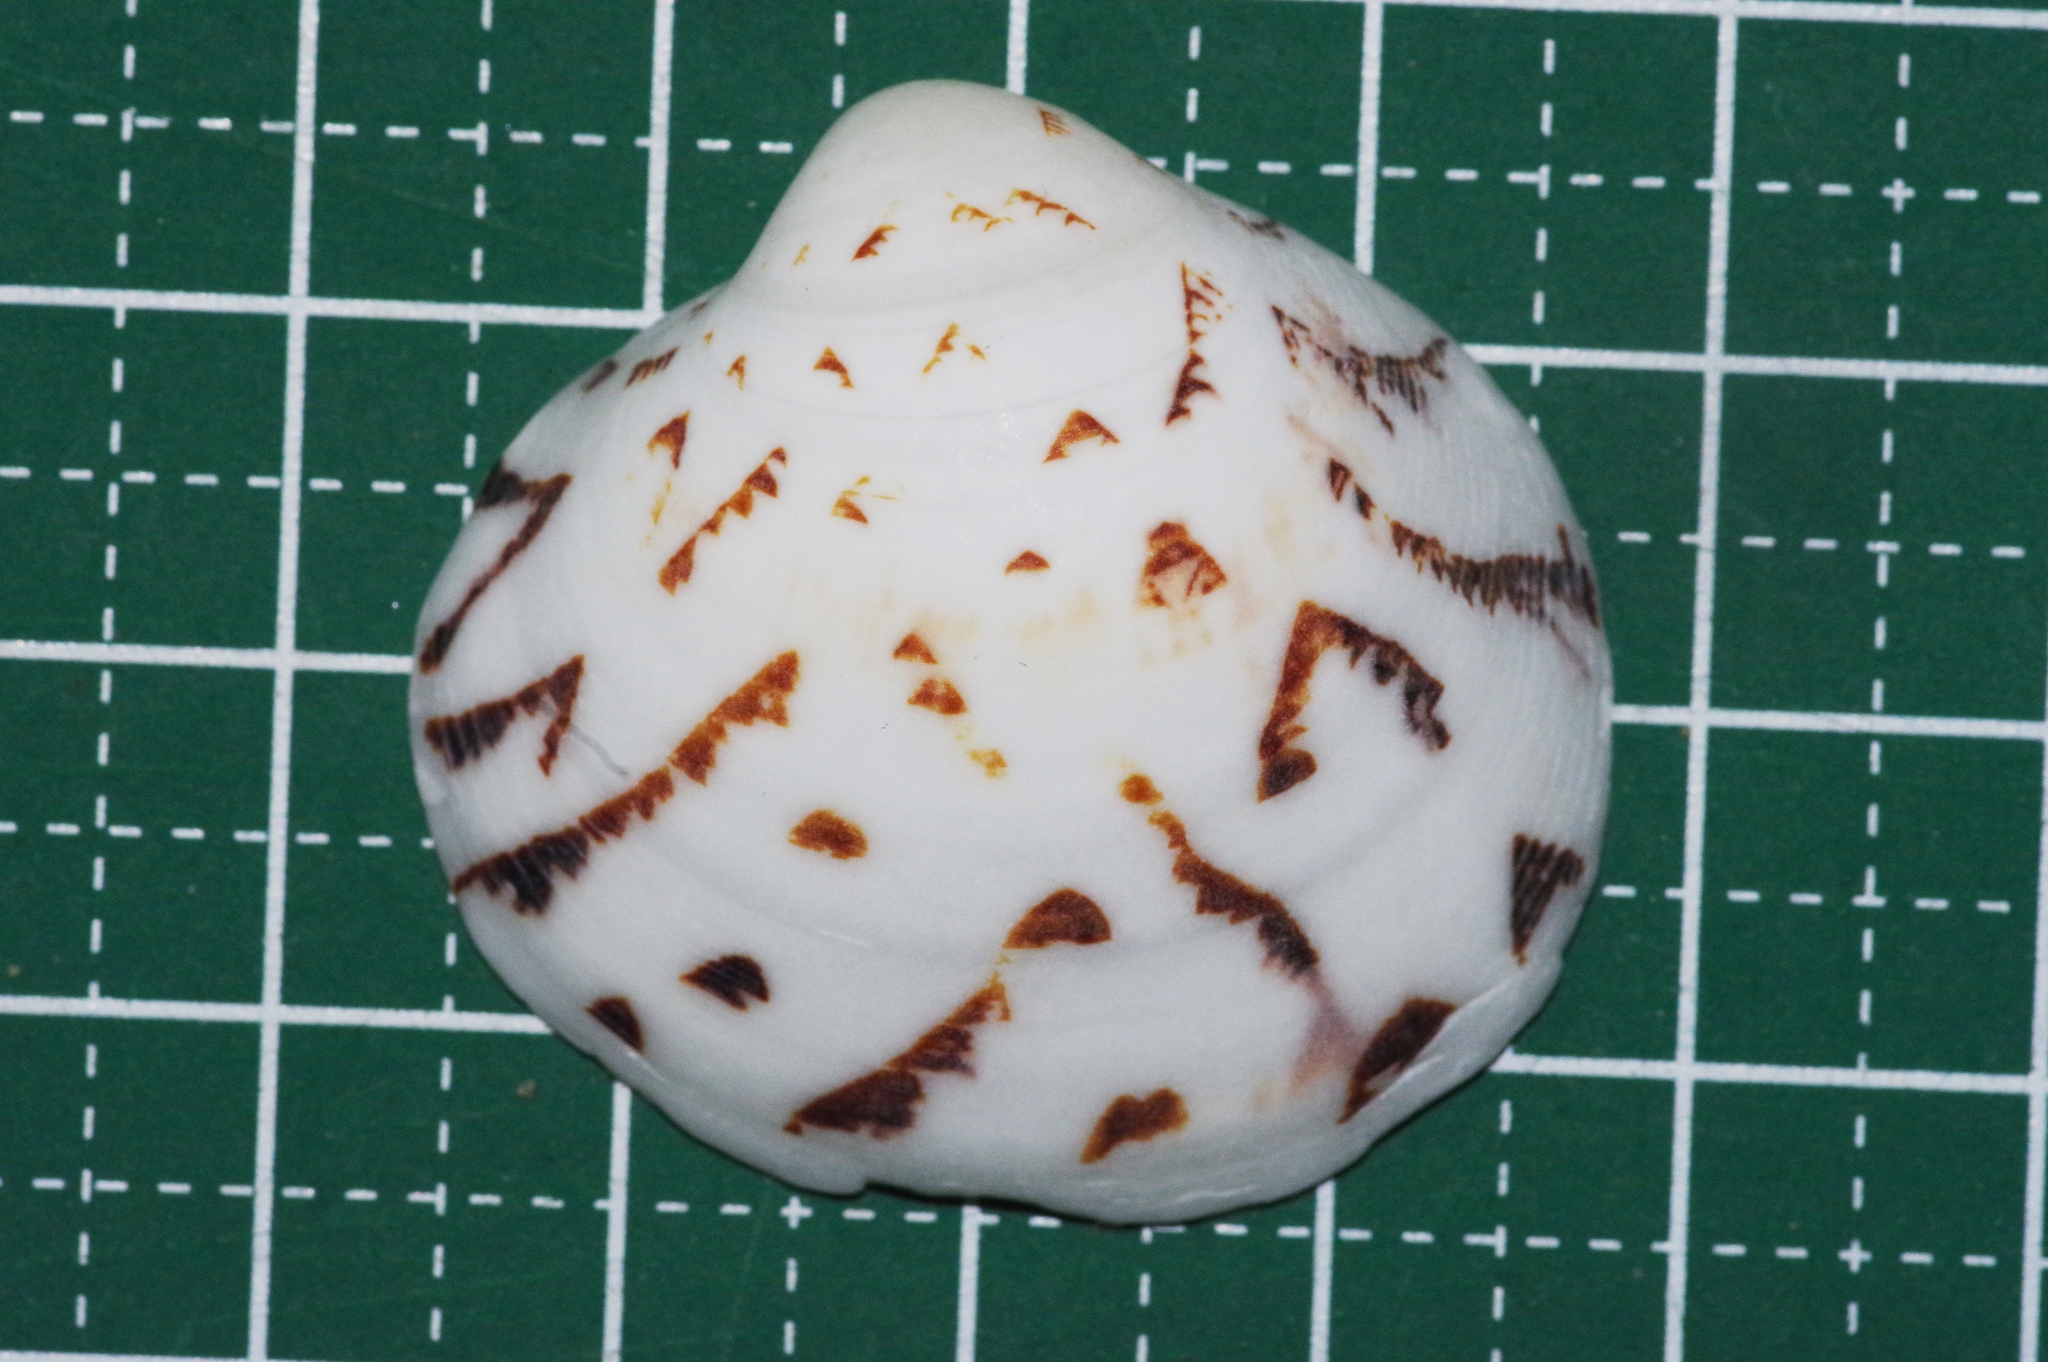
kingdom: Animalia
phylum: Mollusca
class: Bivalvia
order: Venerida
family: Veneridae
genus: Lioconcha
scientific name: Lioconcha castrensis
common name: Camp pitar-venus
